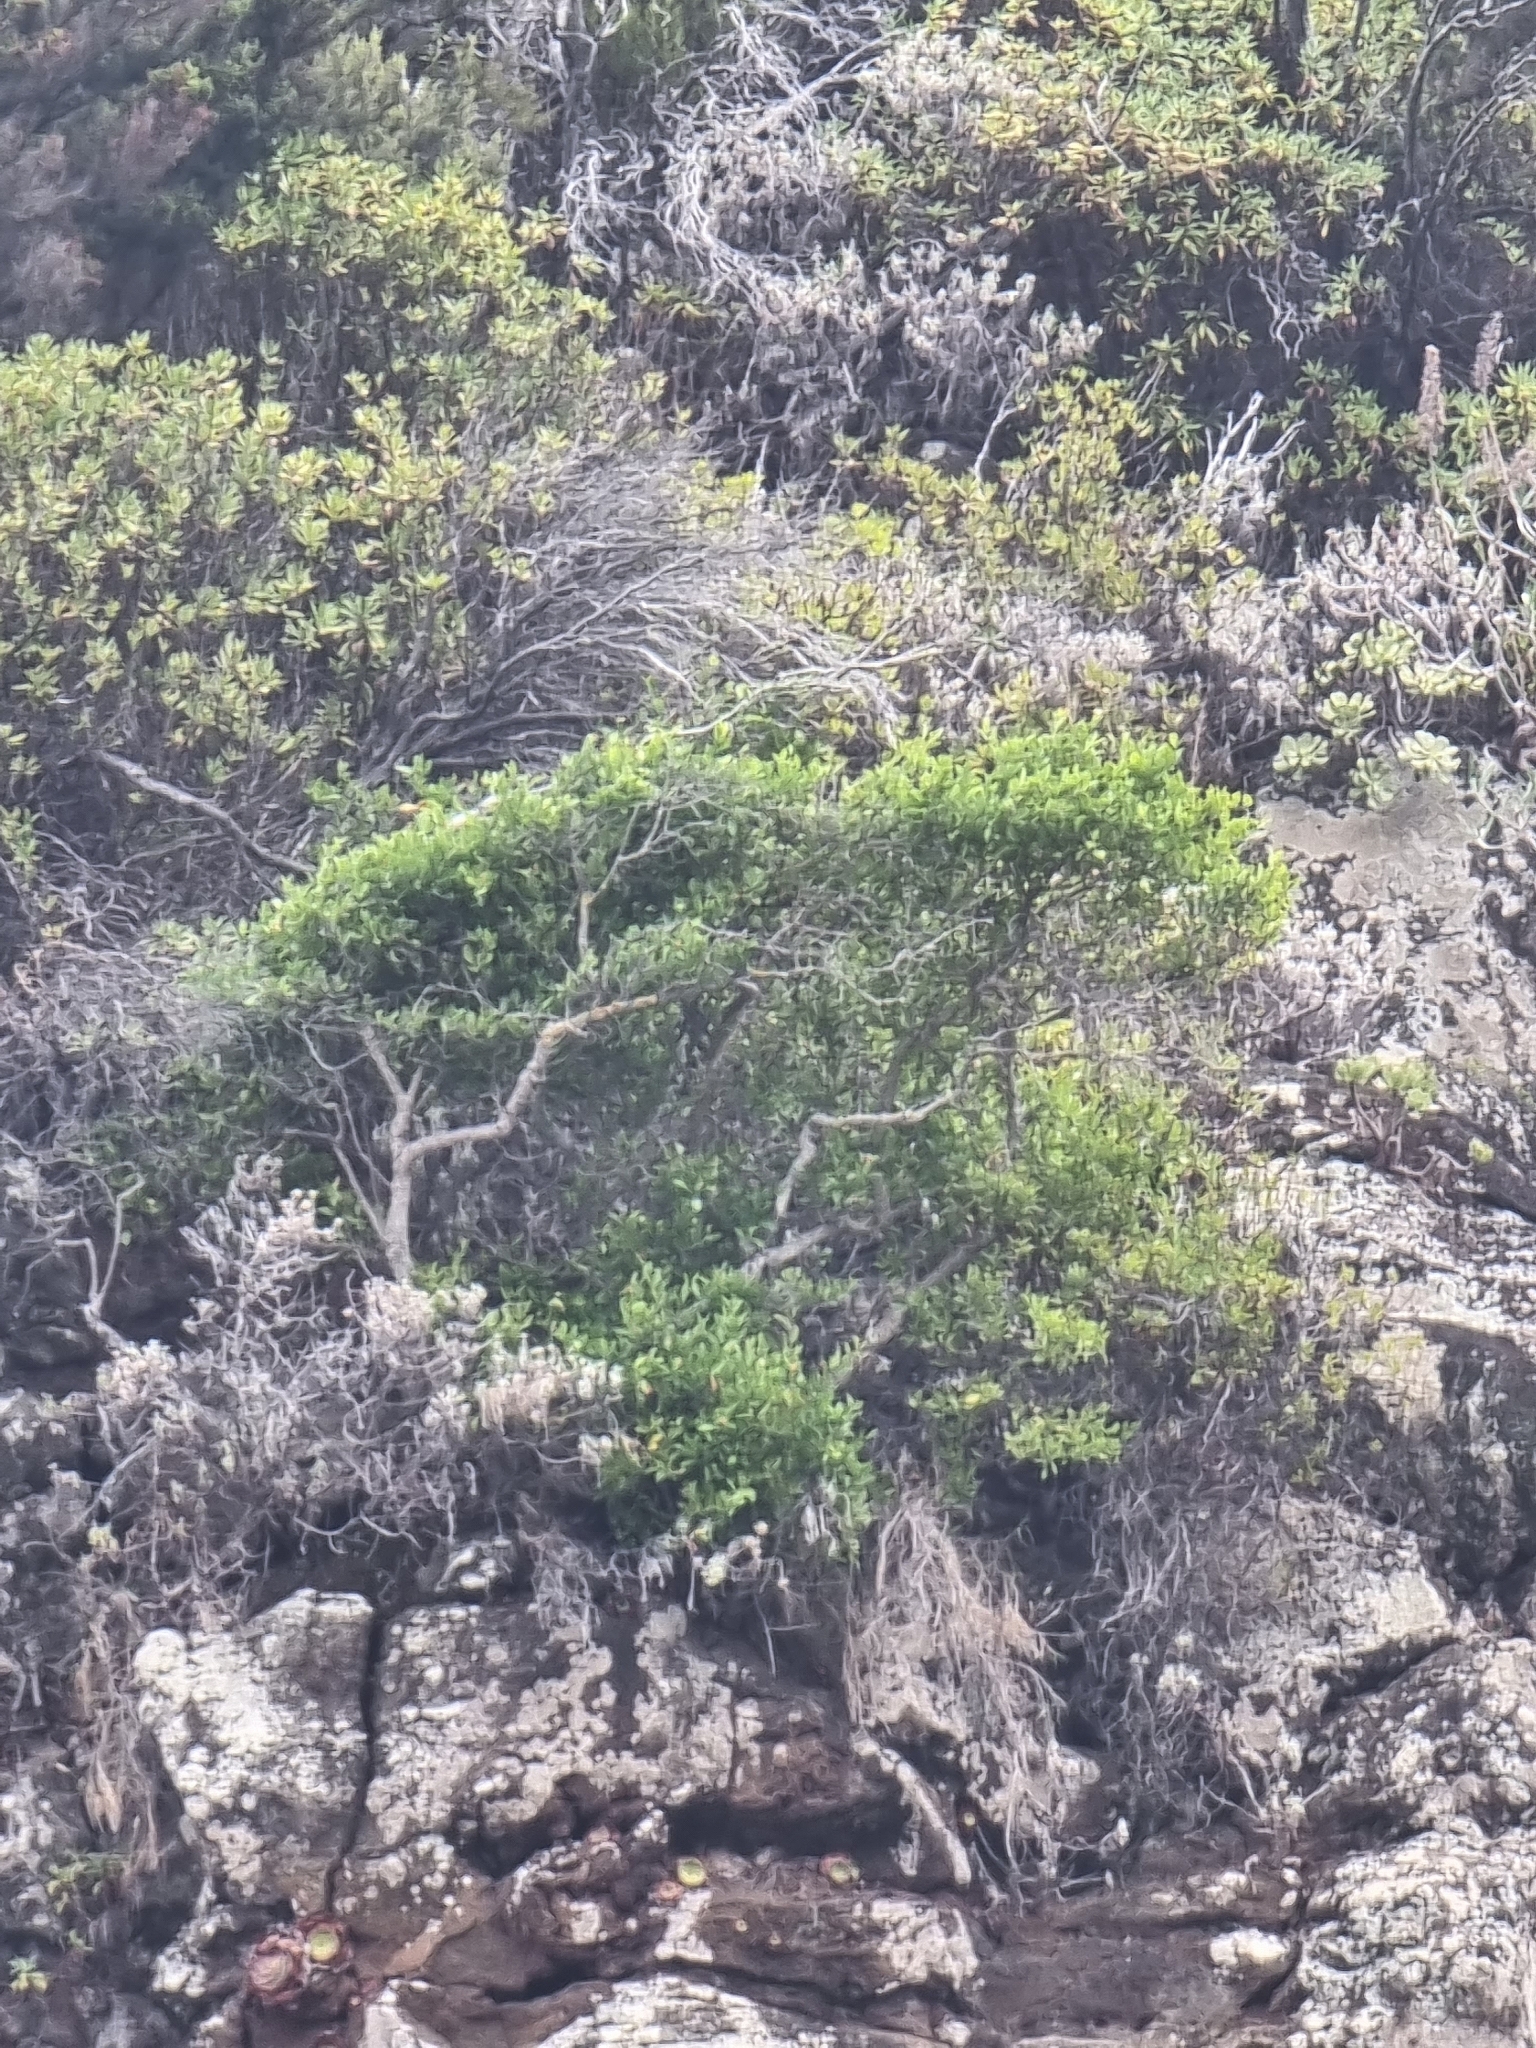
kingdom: Plantae
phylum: Tracheophyta
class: Magnoliopsida
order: Celastrales
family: Celastraceae
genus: Gymnosporia
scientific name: Gymnosporia dryandri
